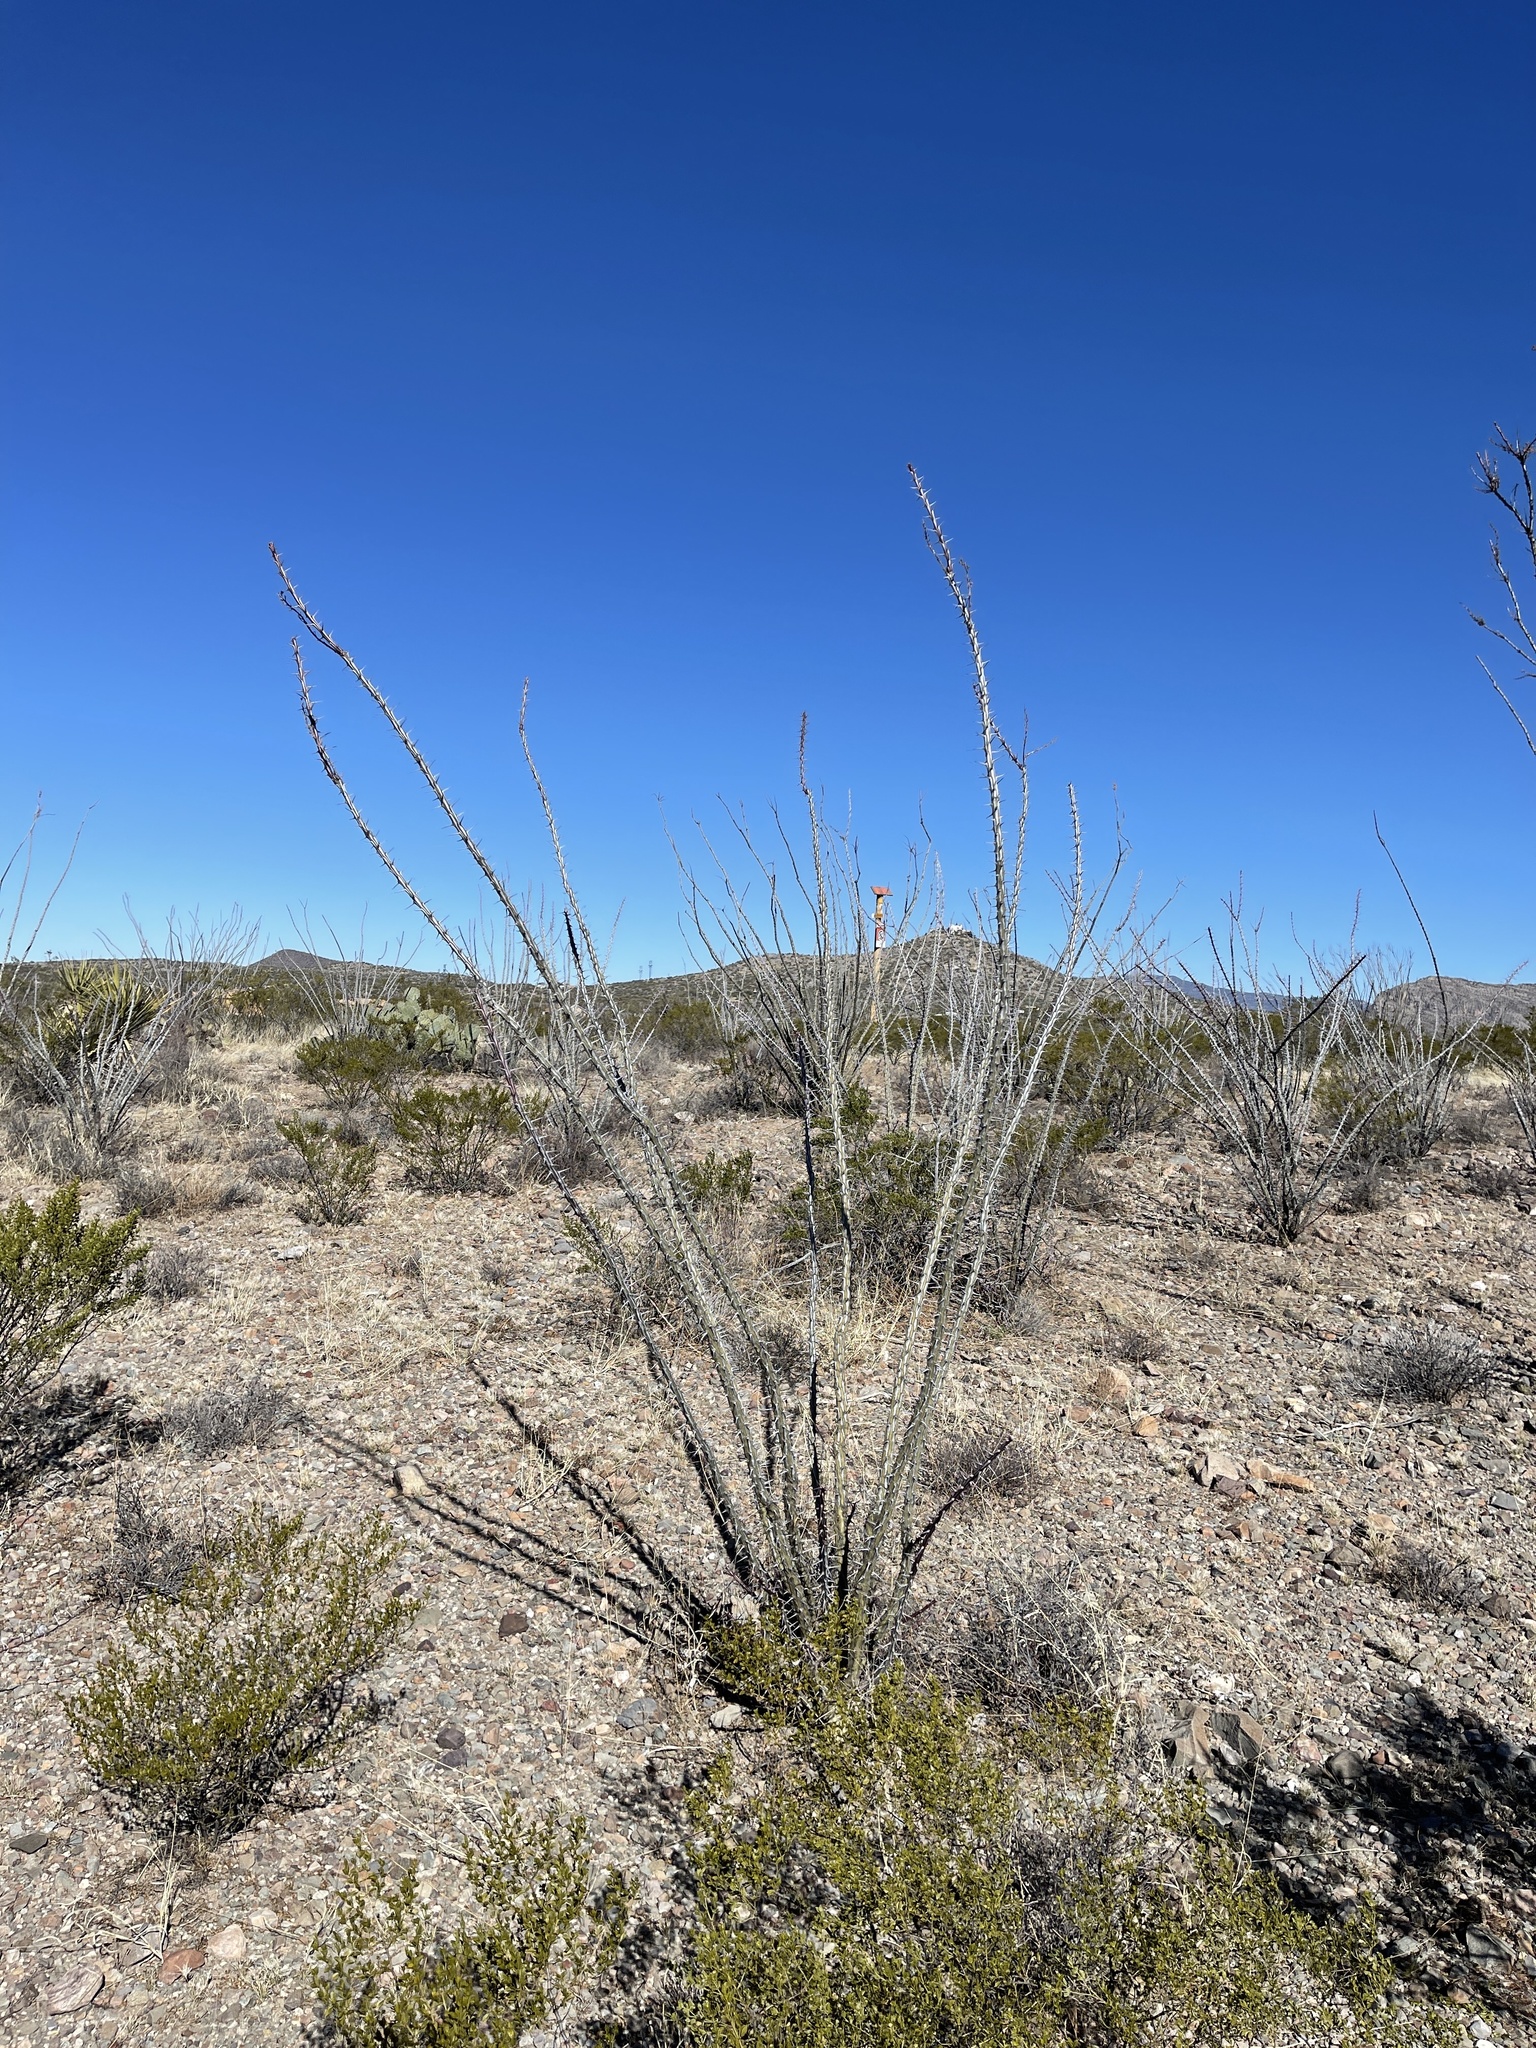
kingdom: Plantae
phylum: Tracheophyta
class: Magnoliopsida
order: Ericales
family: Fouquieriaceae
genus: Fouquieria
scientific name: Fouquieria splendens
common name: Vine-cactus
